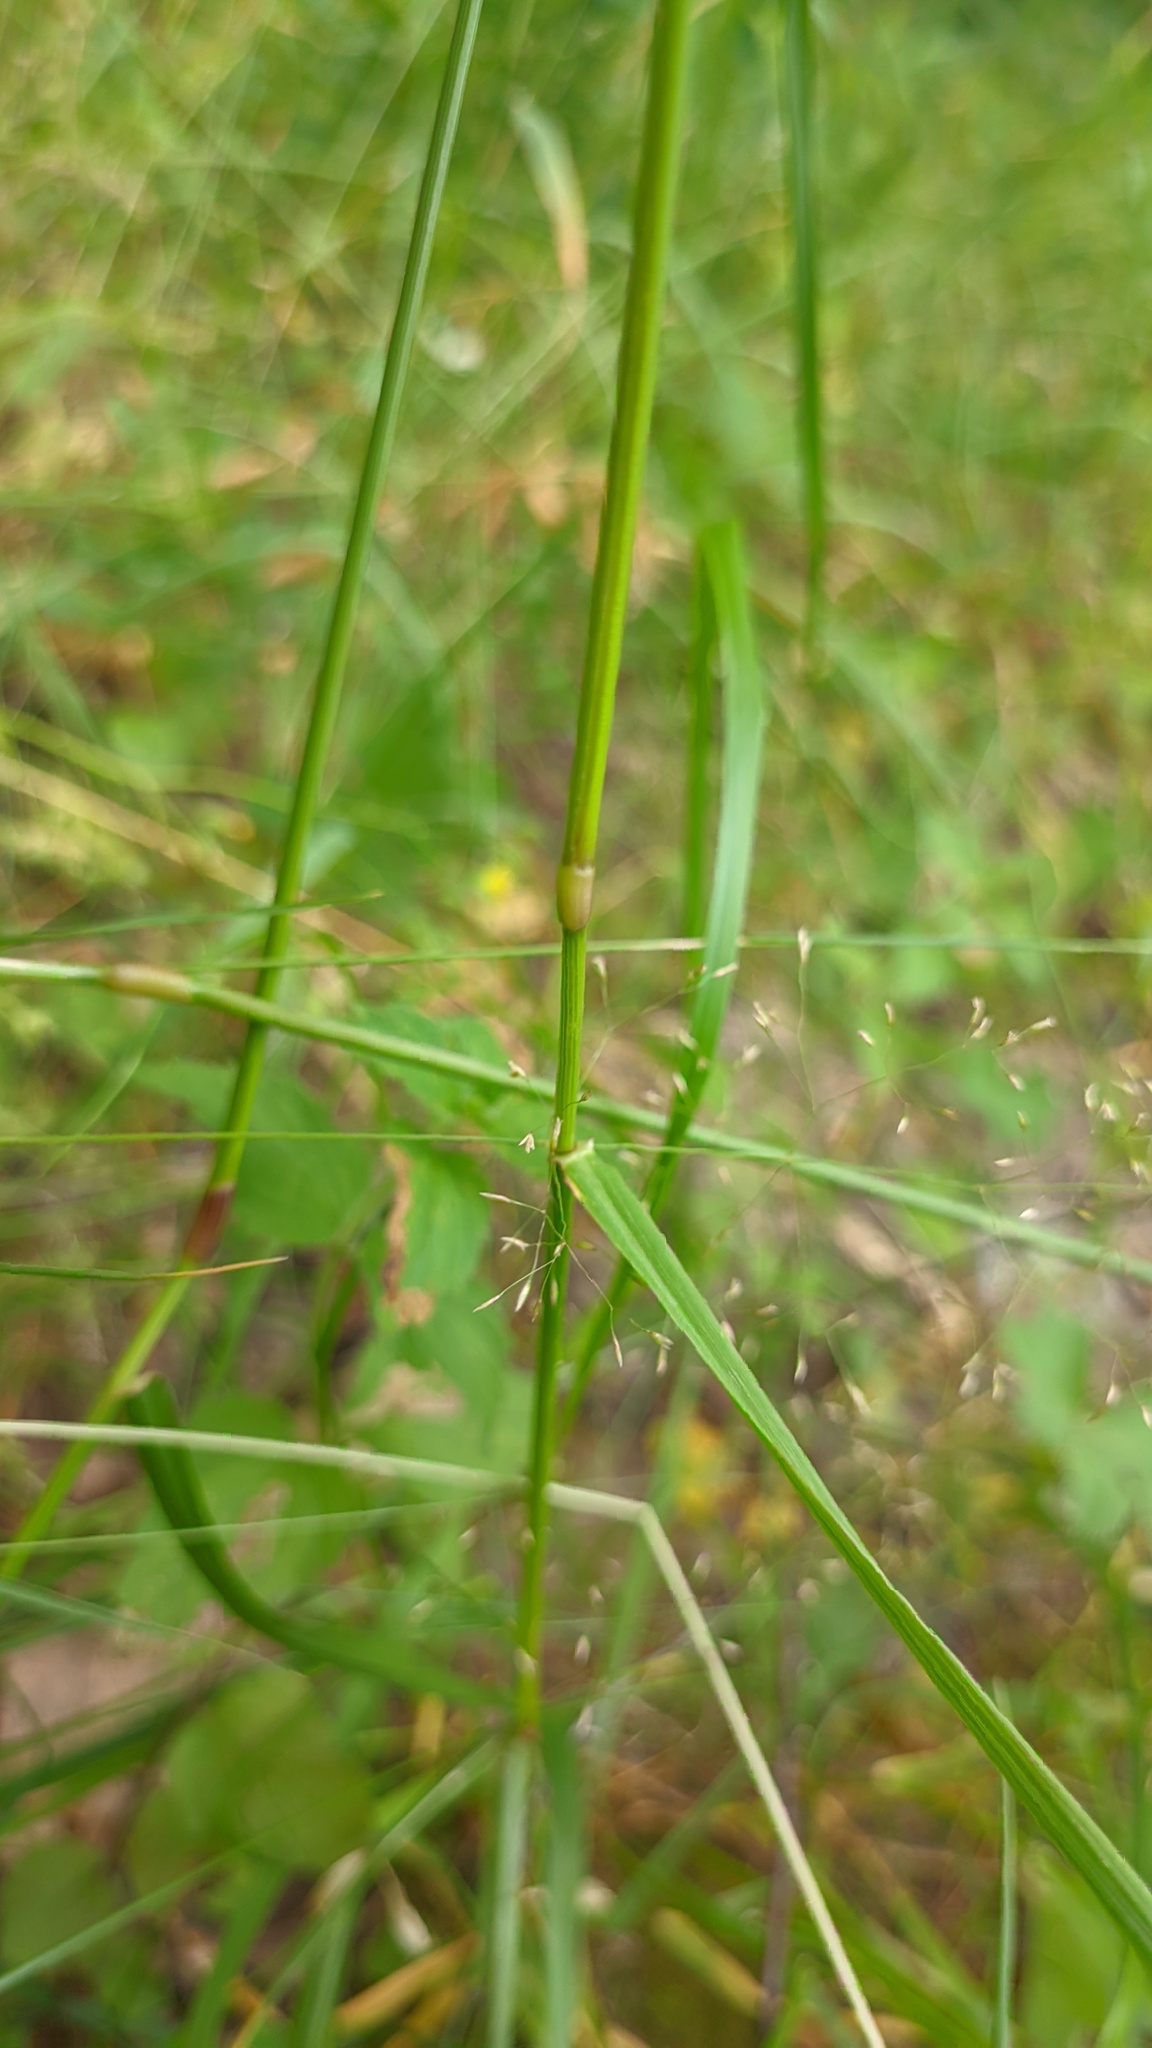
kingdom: Plantae
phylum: Tracheophyta
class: Liliopsida
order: Poales
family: Poaceae
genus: Lolium
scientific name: Lolium pratense
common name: Dover grass
